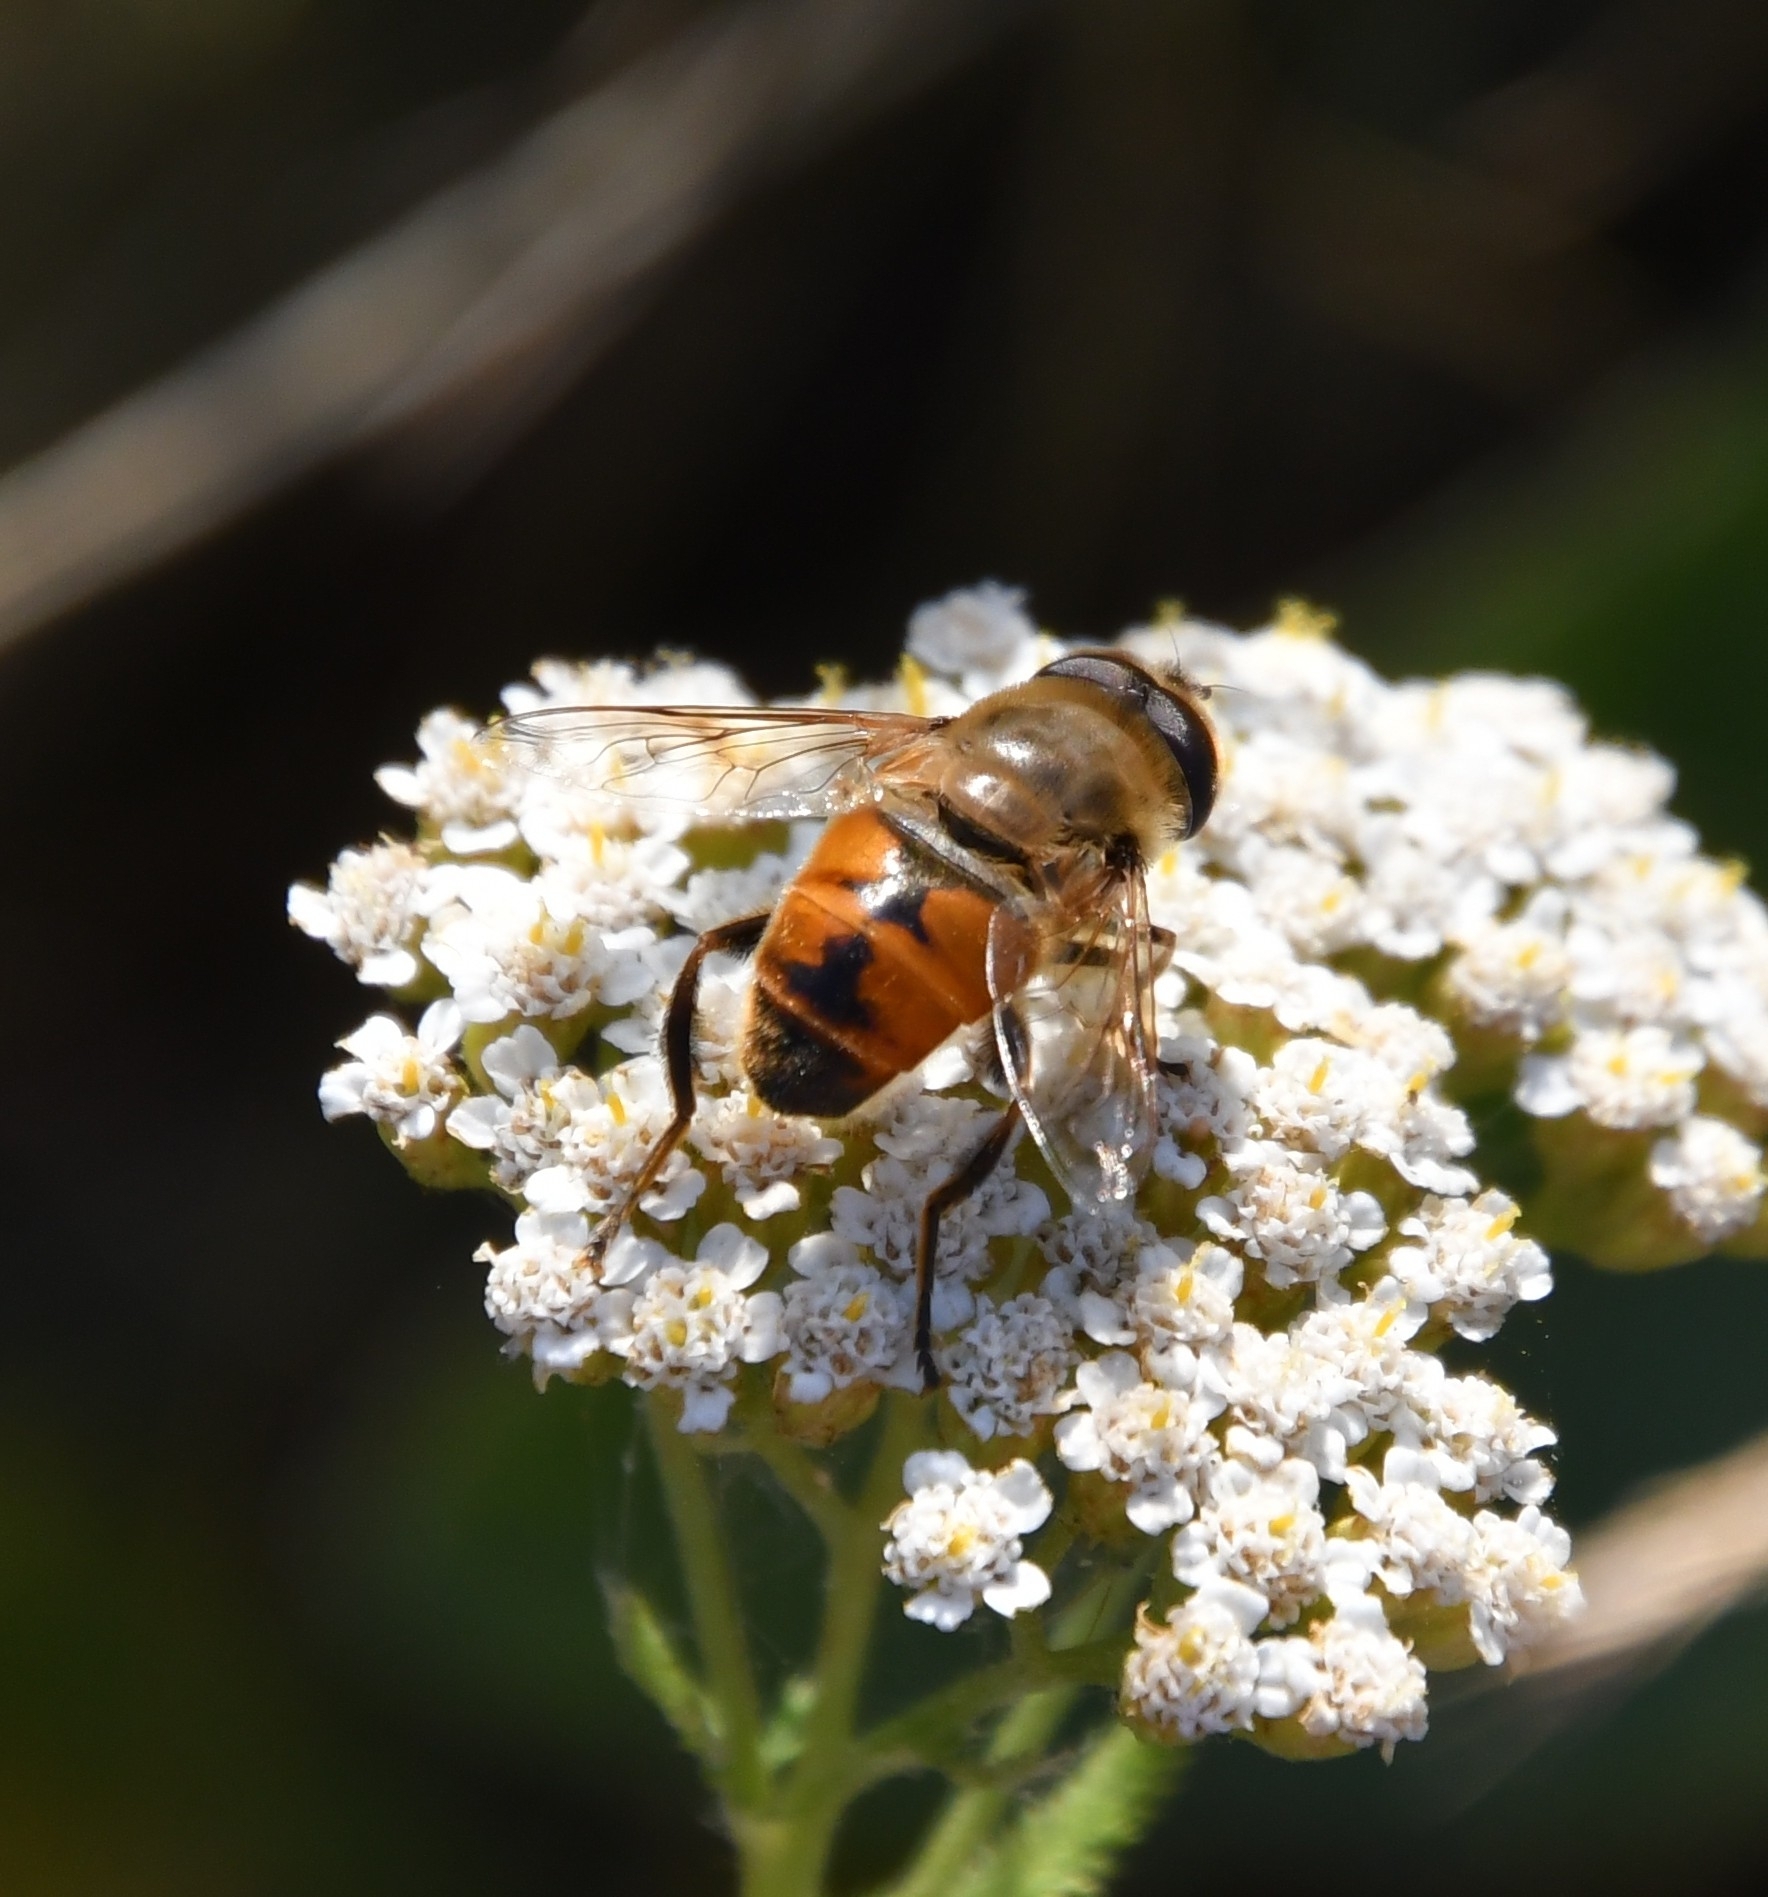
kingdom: Animalia
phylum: Arthropoda
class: Insecta
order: Diptera
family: Syrphidae
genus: Eristalis
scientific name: Eristalis tenax
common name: Drone fly
